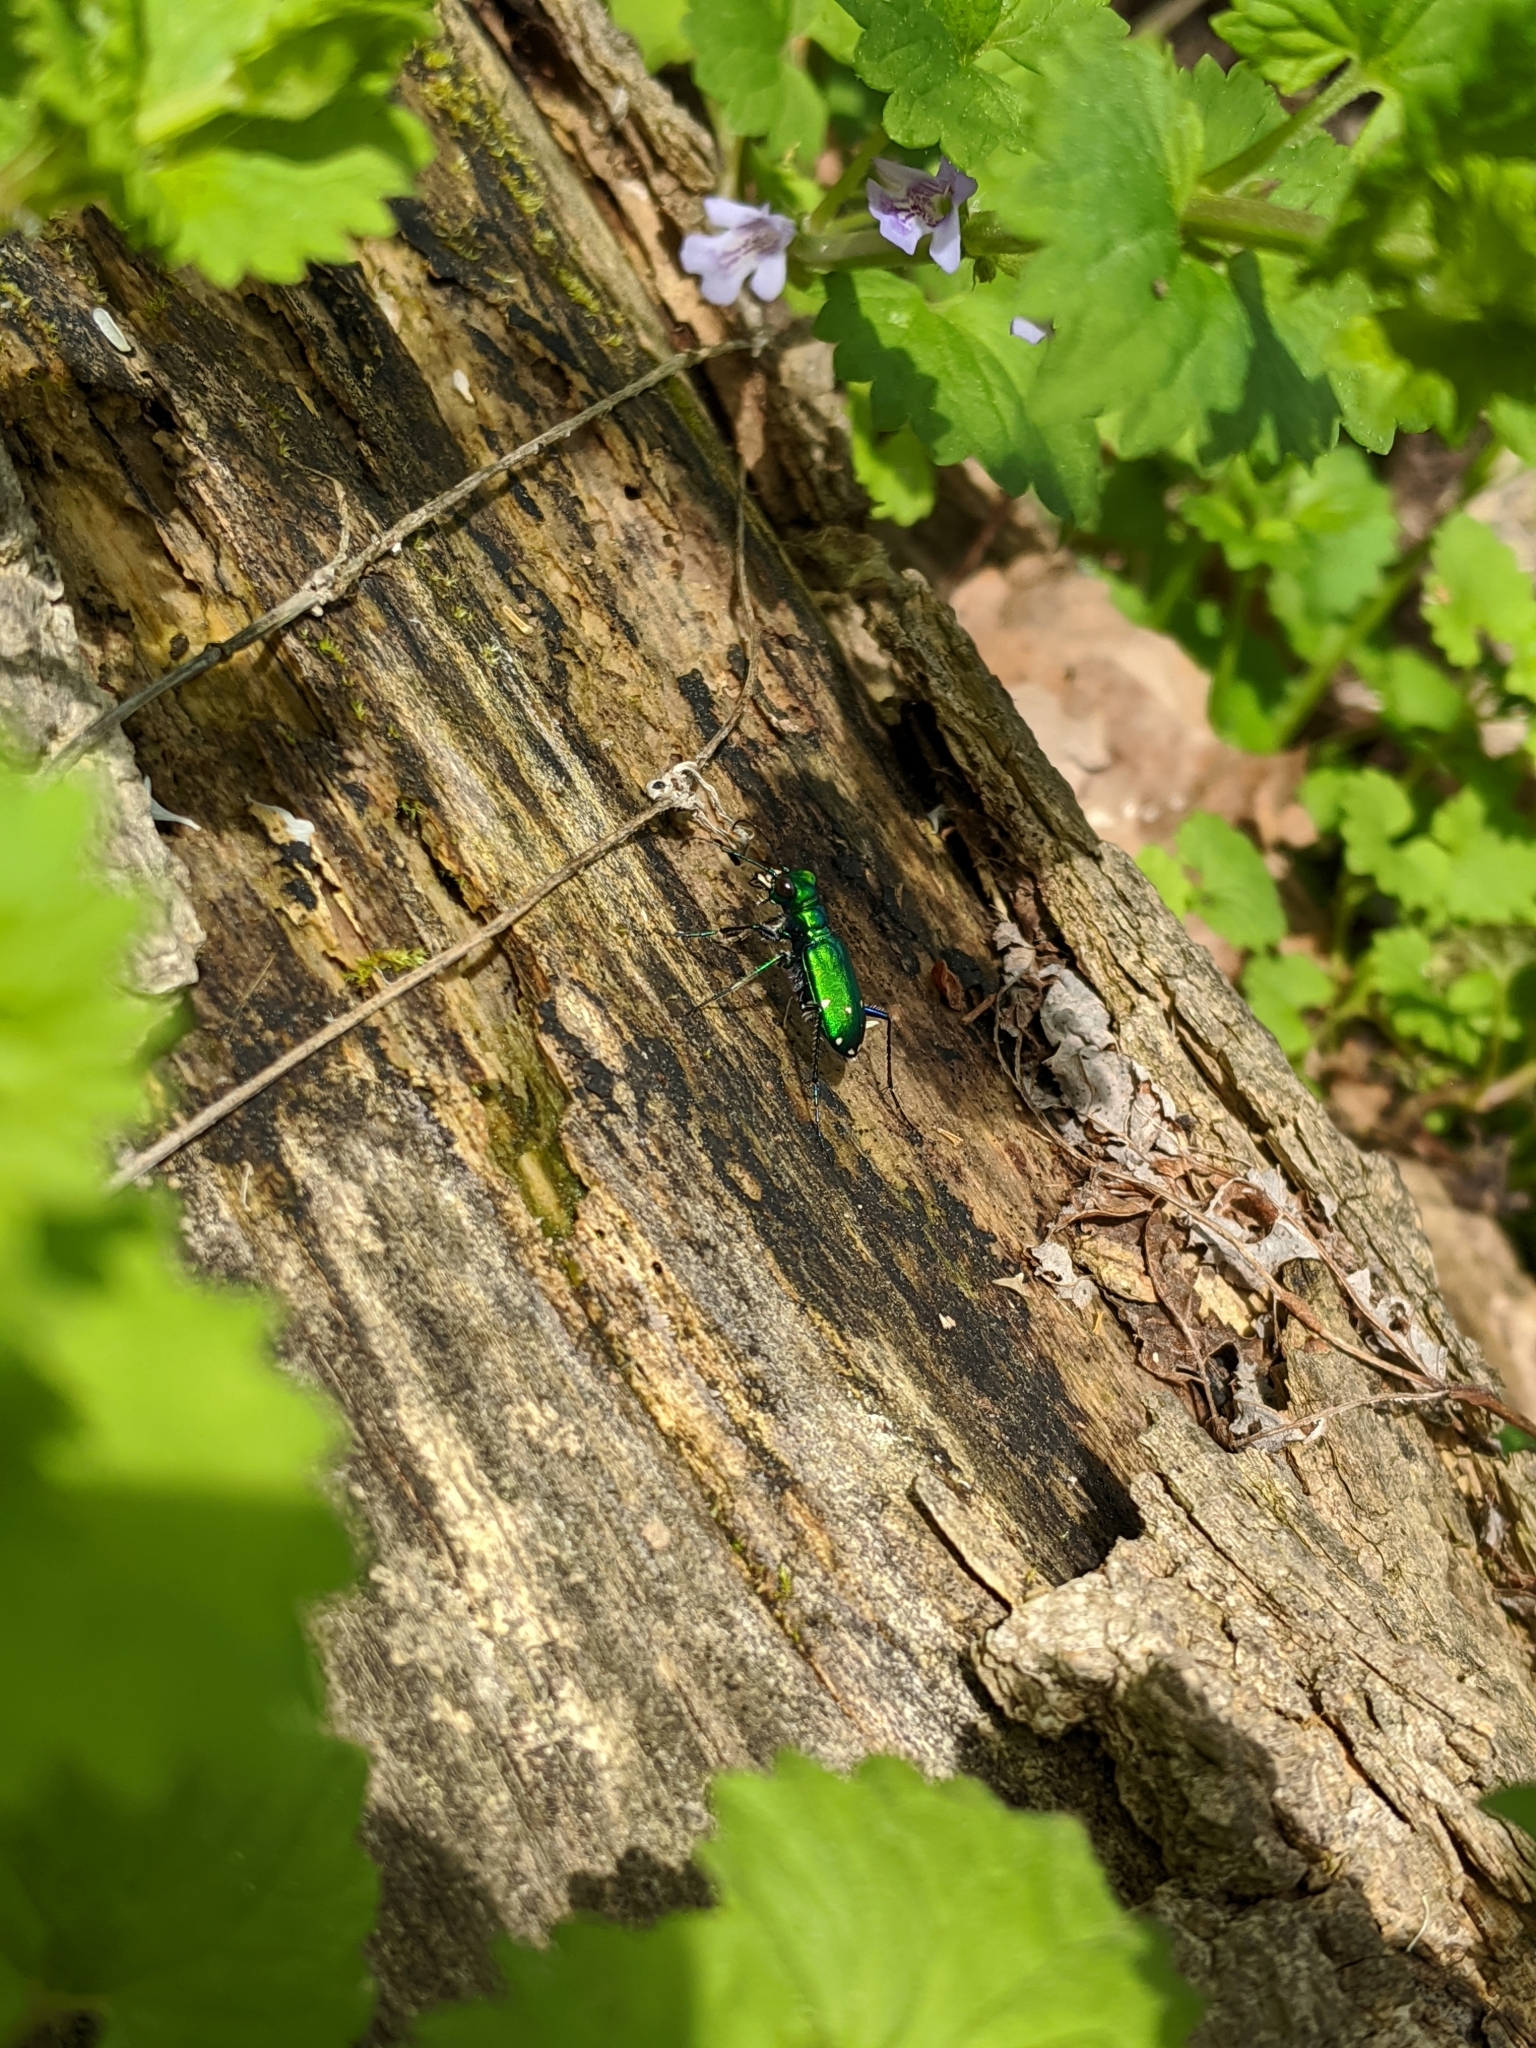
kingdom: Animalia
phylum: Arthropoda
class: Insecta
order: Coleoptera
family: Carabidae
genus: Cicindela
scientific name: Cicindela sexguttata
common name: Six-spotted tiger beetle
